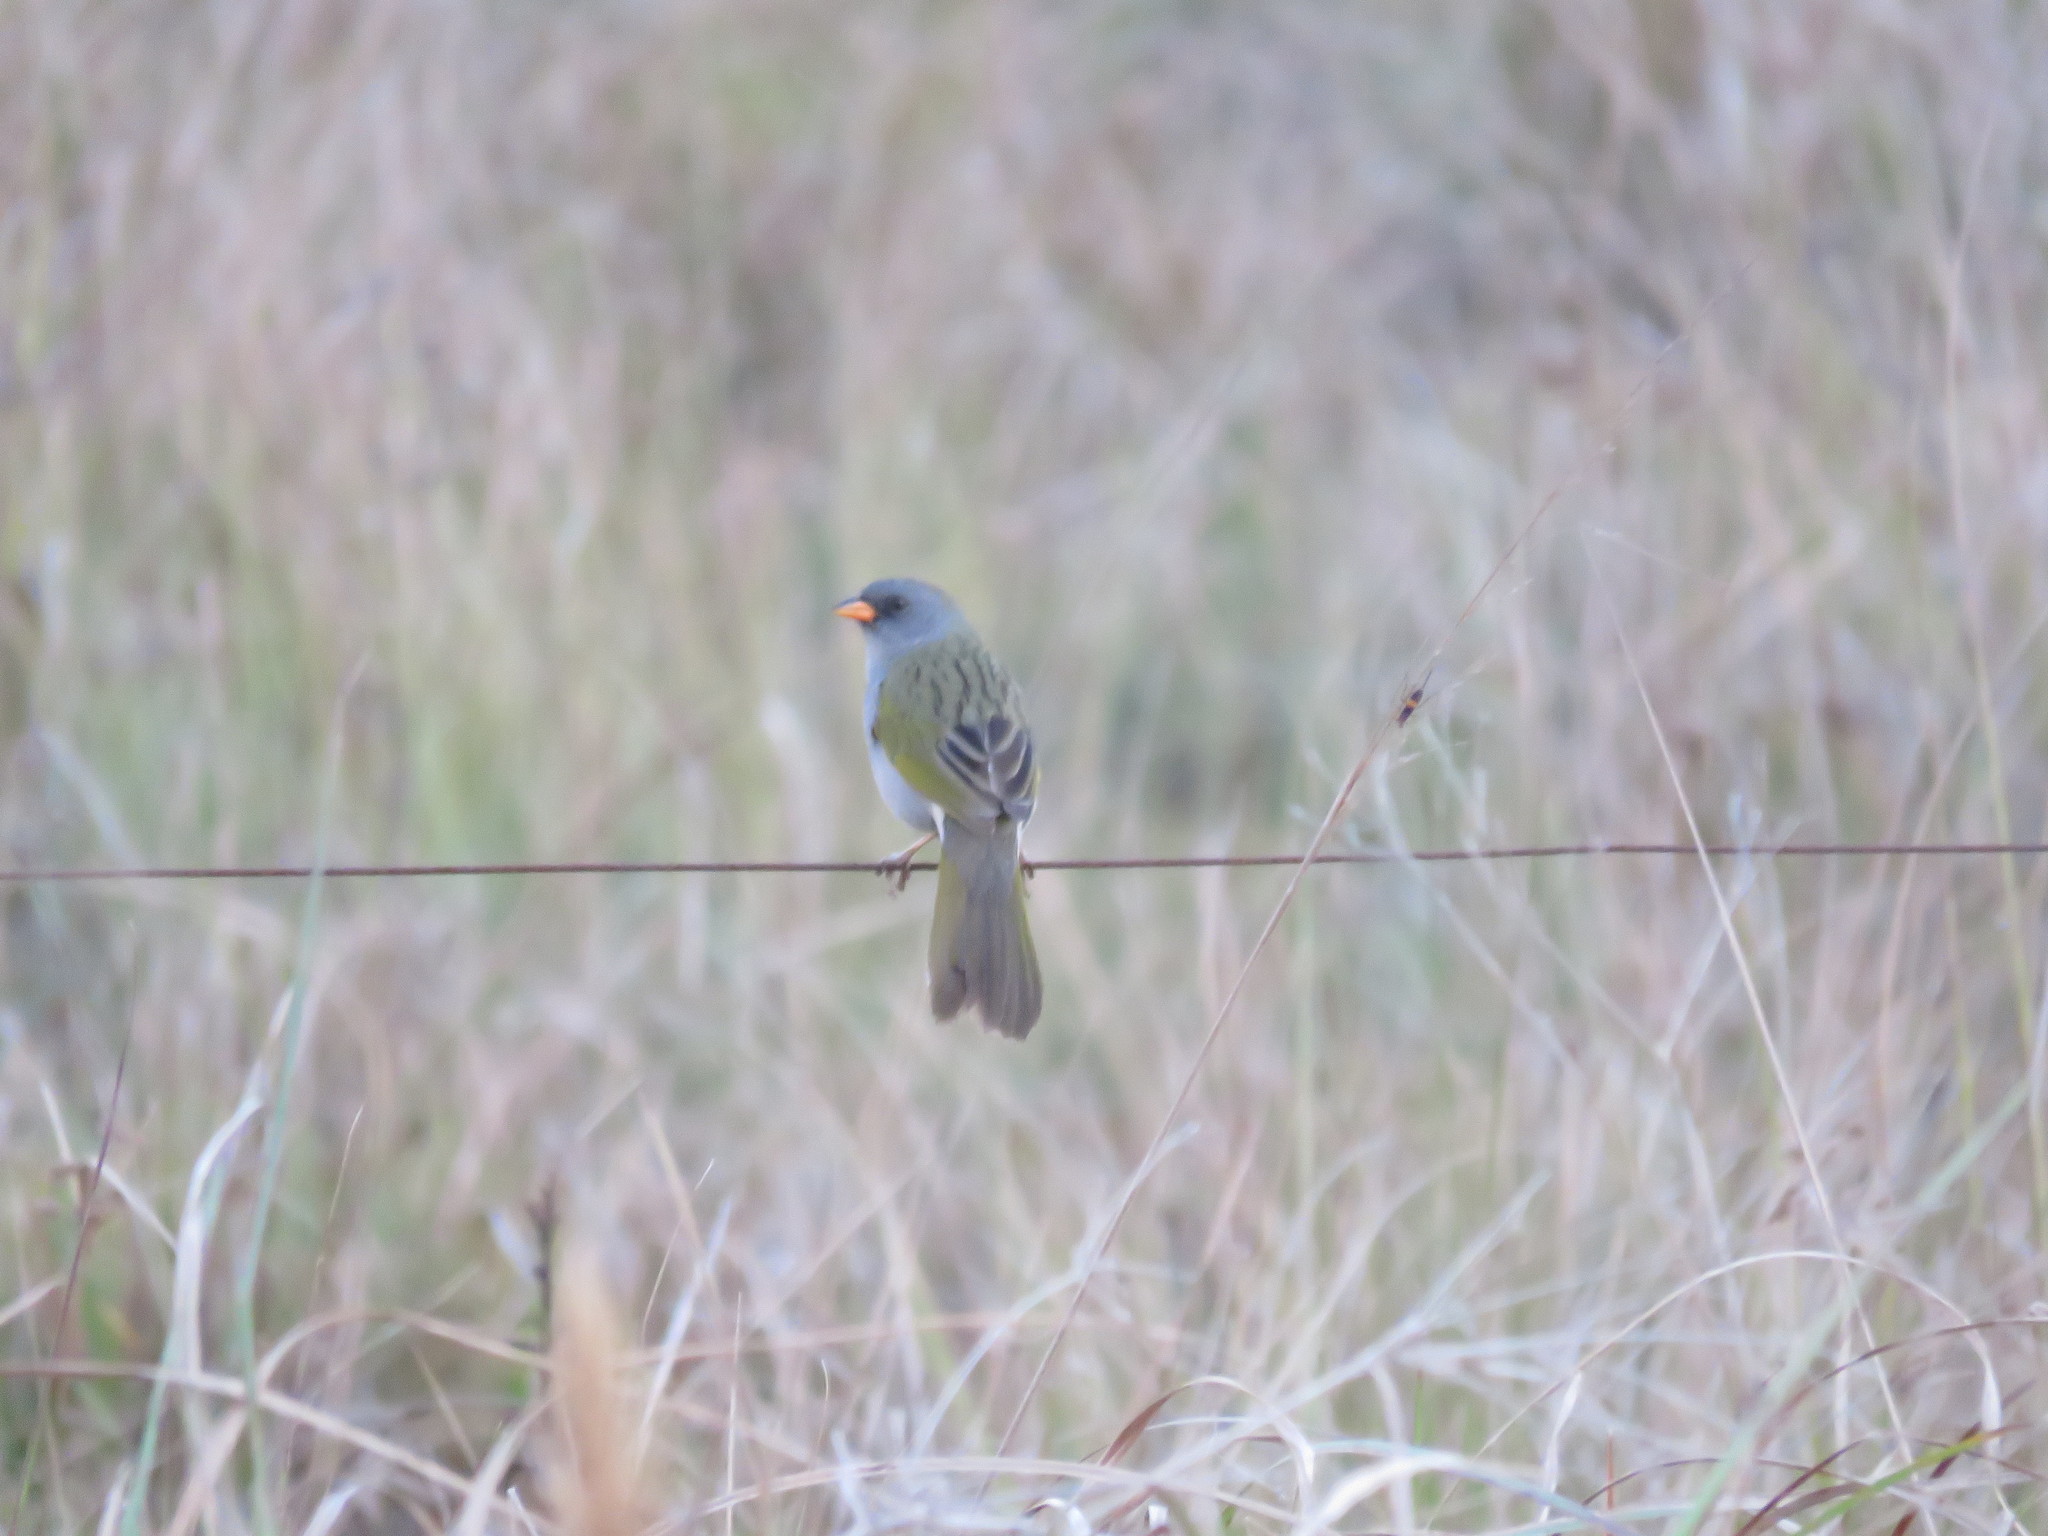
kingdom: Animalia
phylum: Chordata
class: Aves
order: Passeriformes
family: Thraupidae
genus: Embernagra
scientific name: Embernagra platensis
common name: Pampa finch
